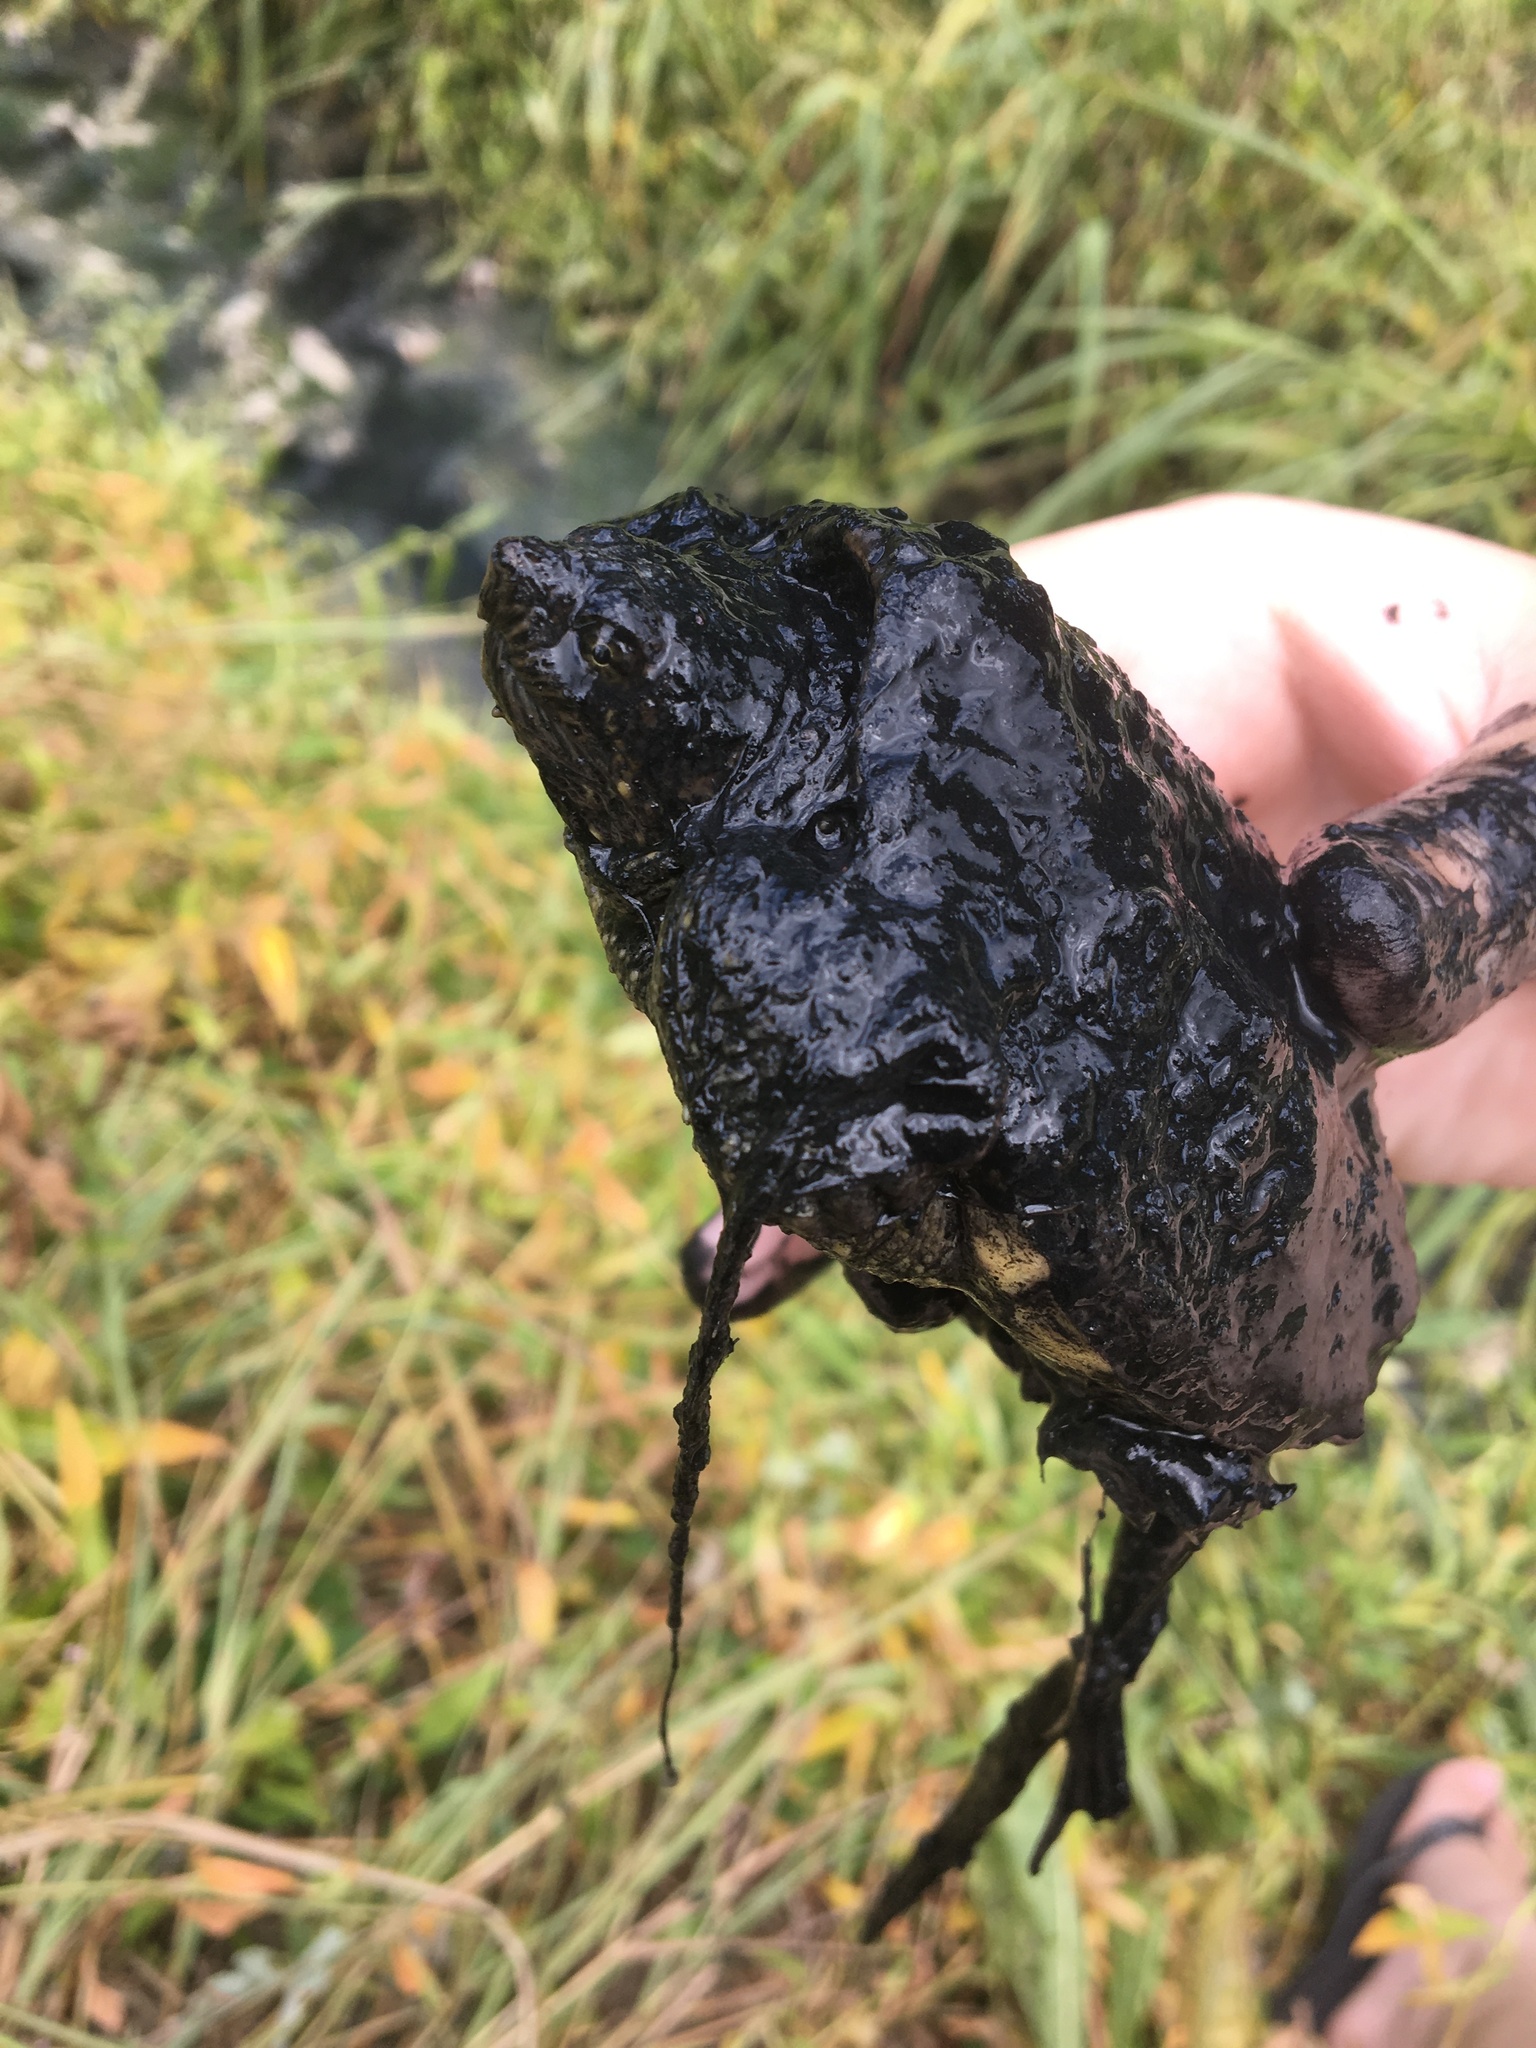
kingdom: Animalia
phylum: Chordata
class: Testudines
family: Chelydridae
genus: Chelydra
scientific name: Chelydra serpentina
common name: Common snapping turtle
